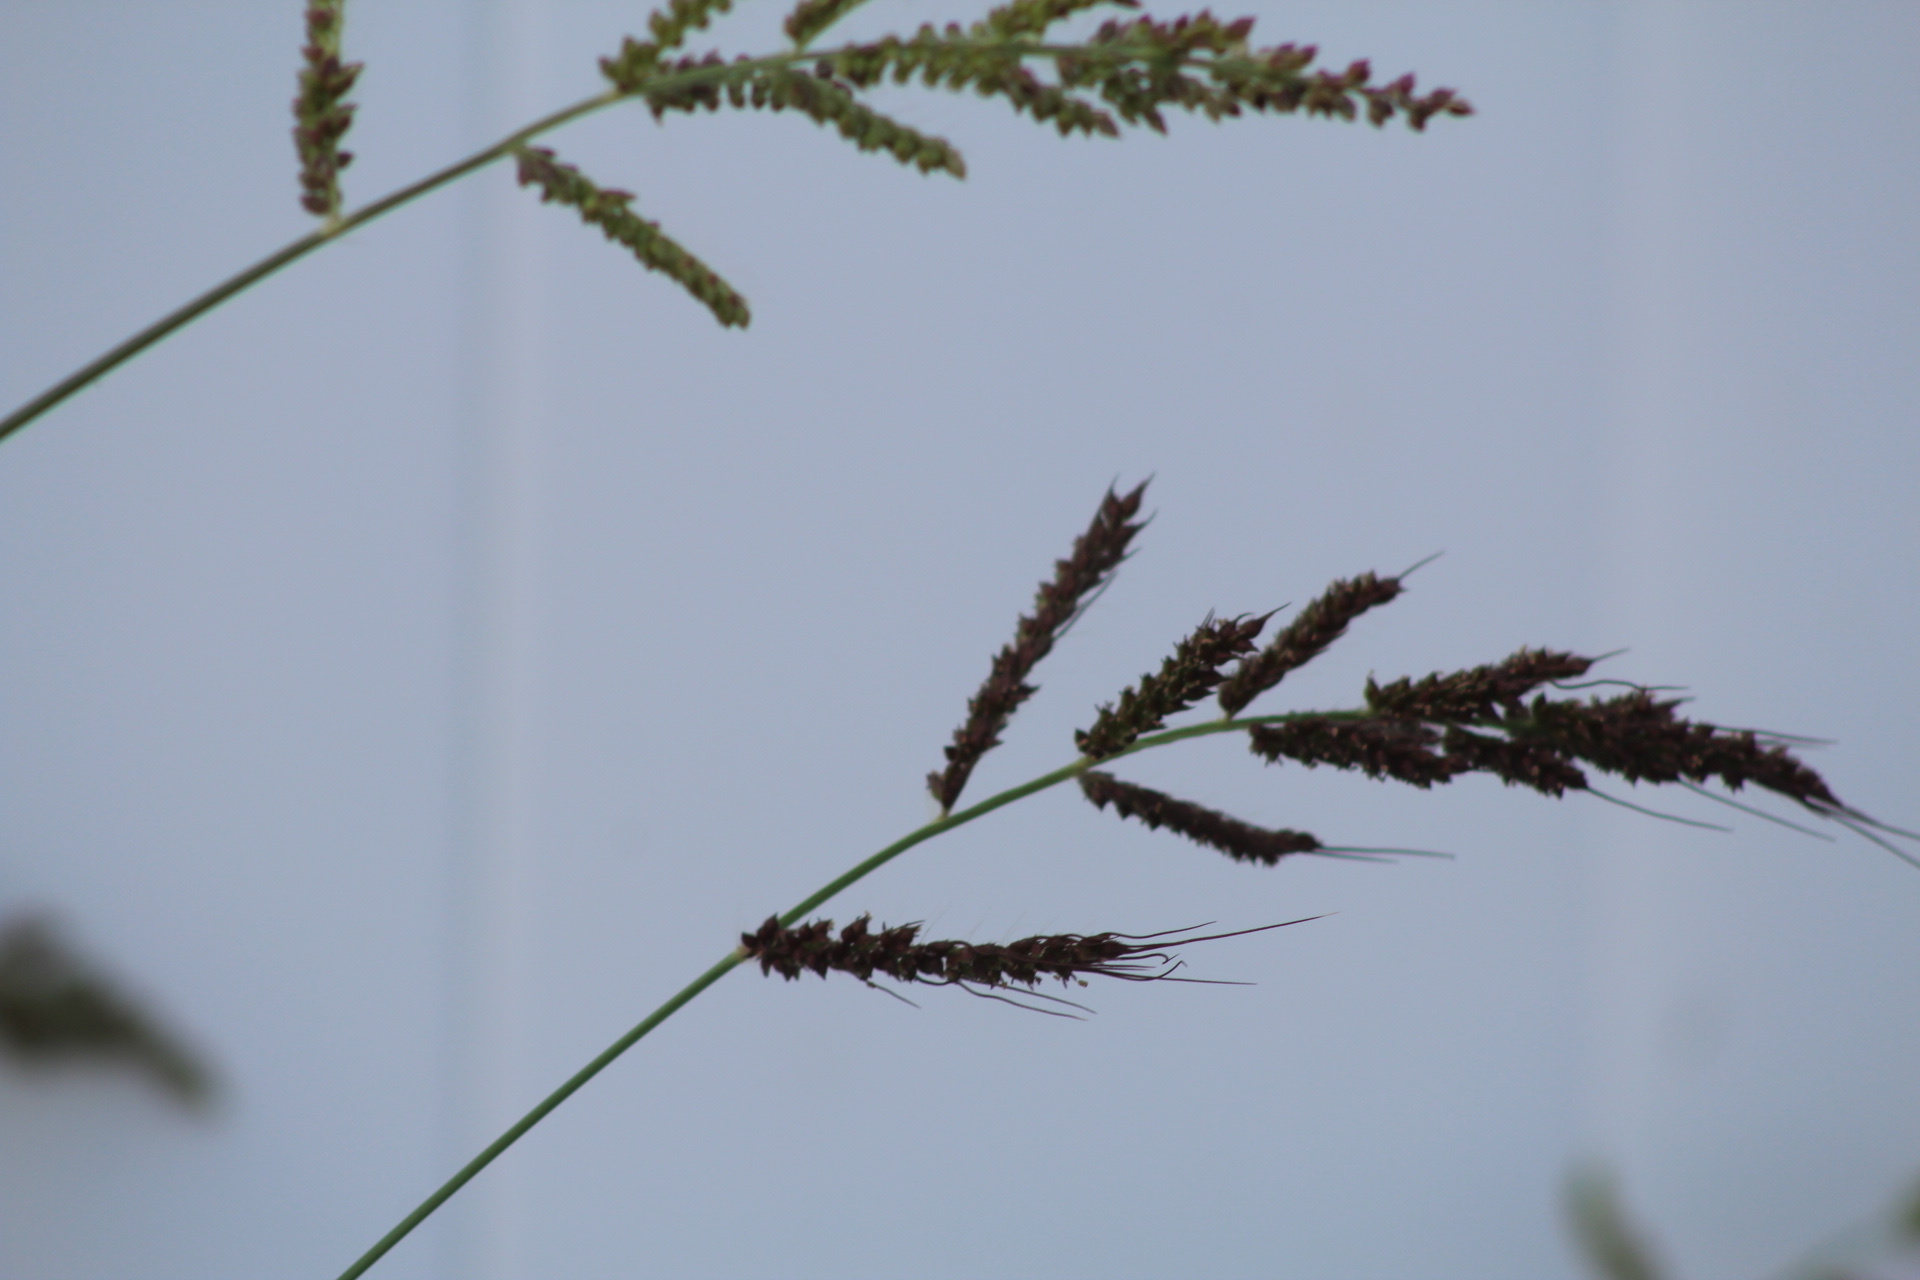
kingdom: Plantae
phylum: Tracheophyta
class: Liliopsida
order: Poales
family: Poaceae
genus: Echinochloa
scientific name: Echinochloa crus-galli
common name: Cockspur
